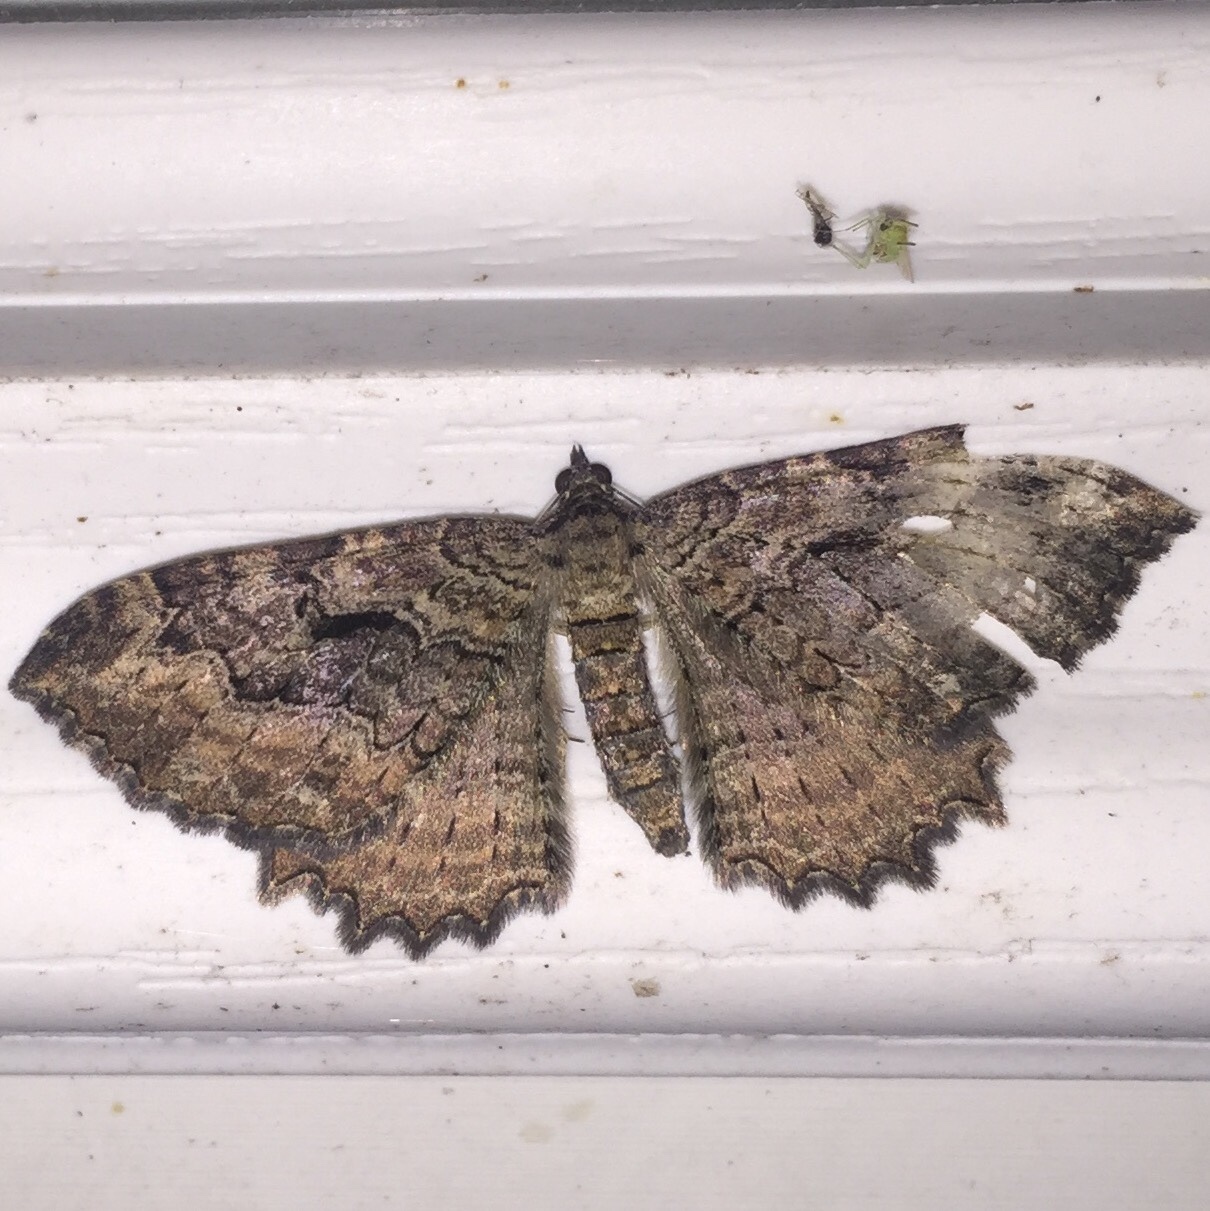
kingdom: Animalia
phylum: Arthropoda
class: Insecta
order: Lepidoptera
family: Geometridae
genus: Rheumaptera
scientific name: Rheumaptera
